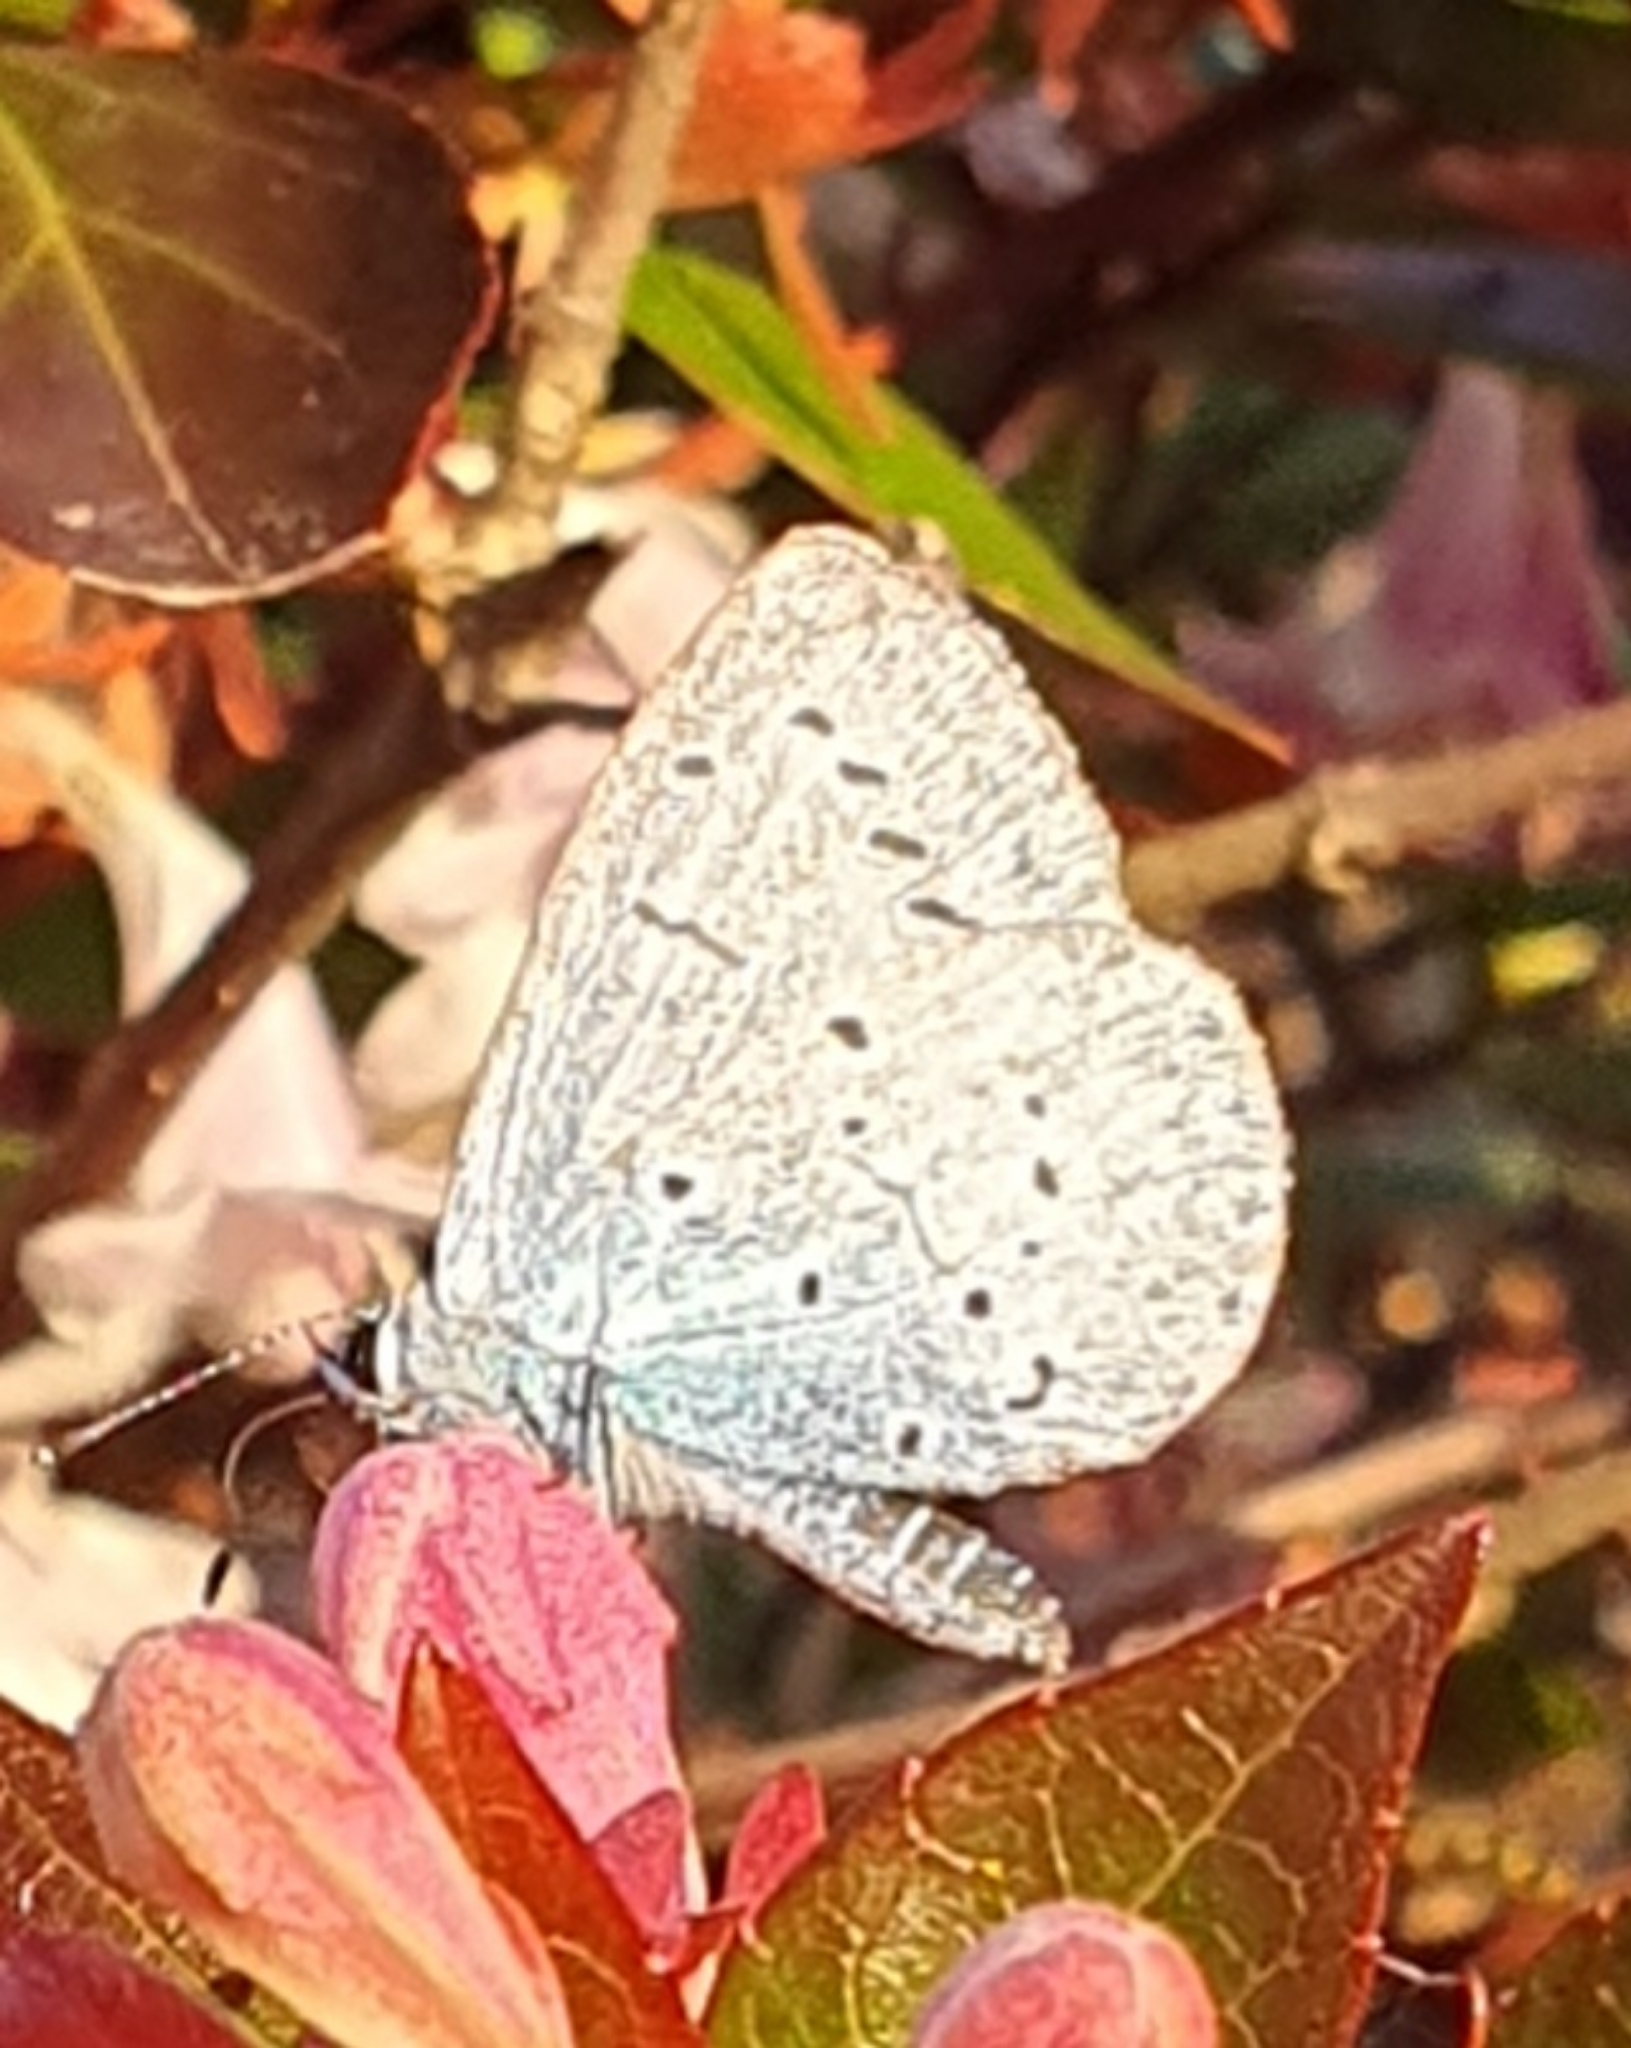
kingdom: Animalia
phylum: Arthropoda
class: Insecta
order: Lepidoptera
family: Lycaenidae
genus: Celastrina
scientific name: Celastrina argiolus
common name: Holly blue
